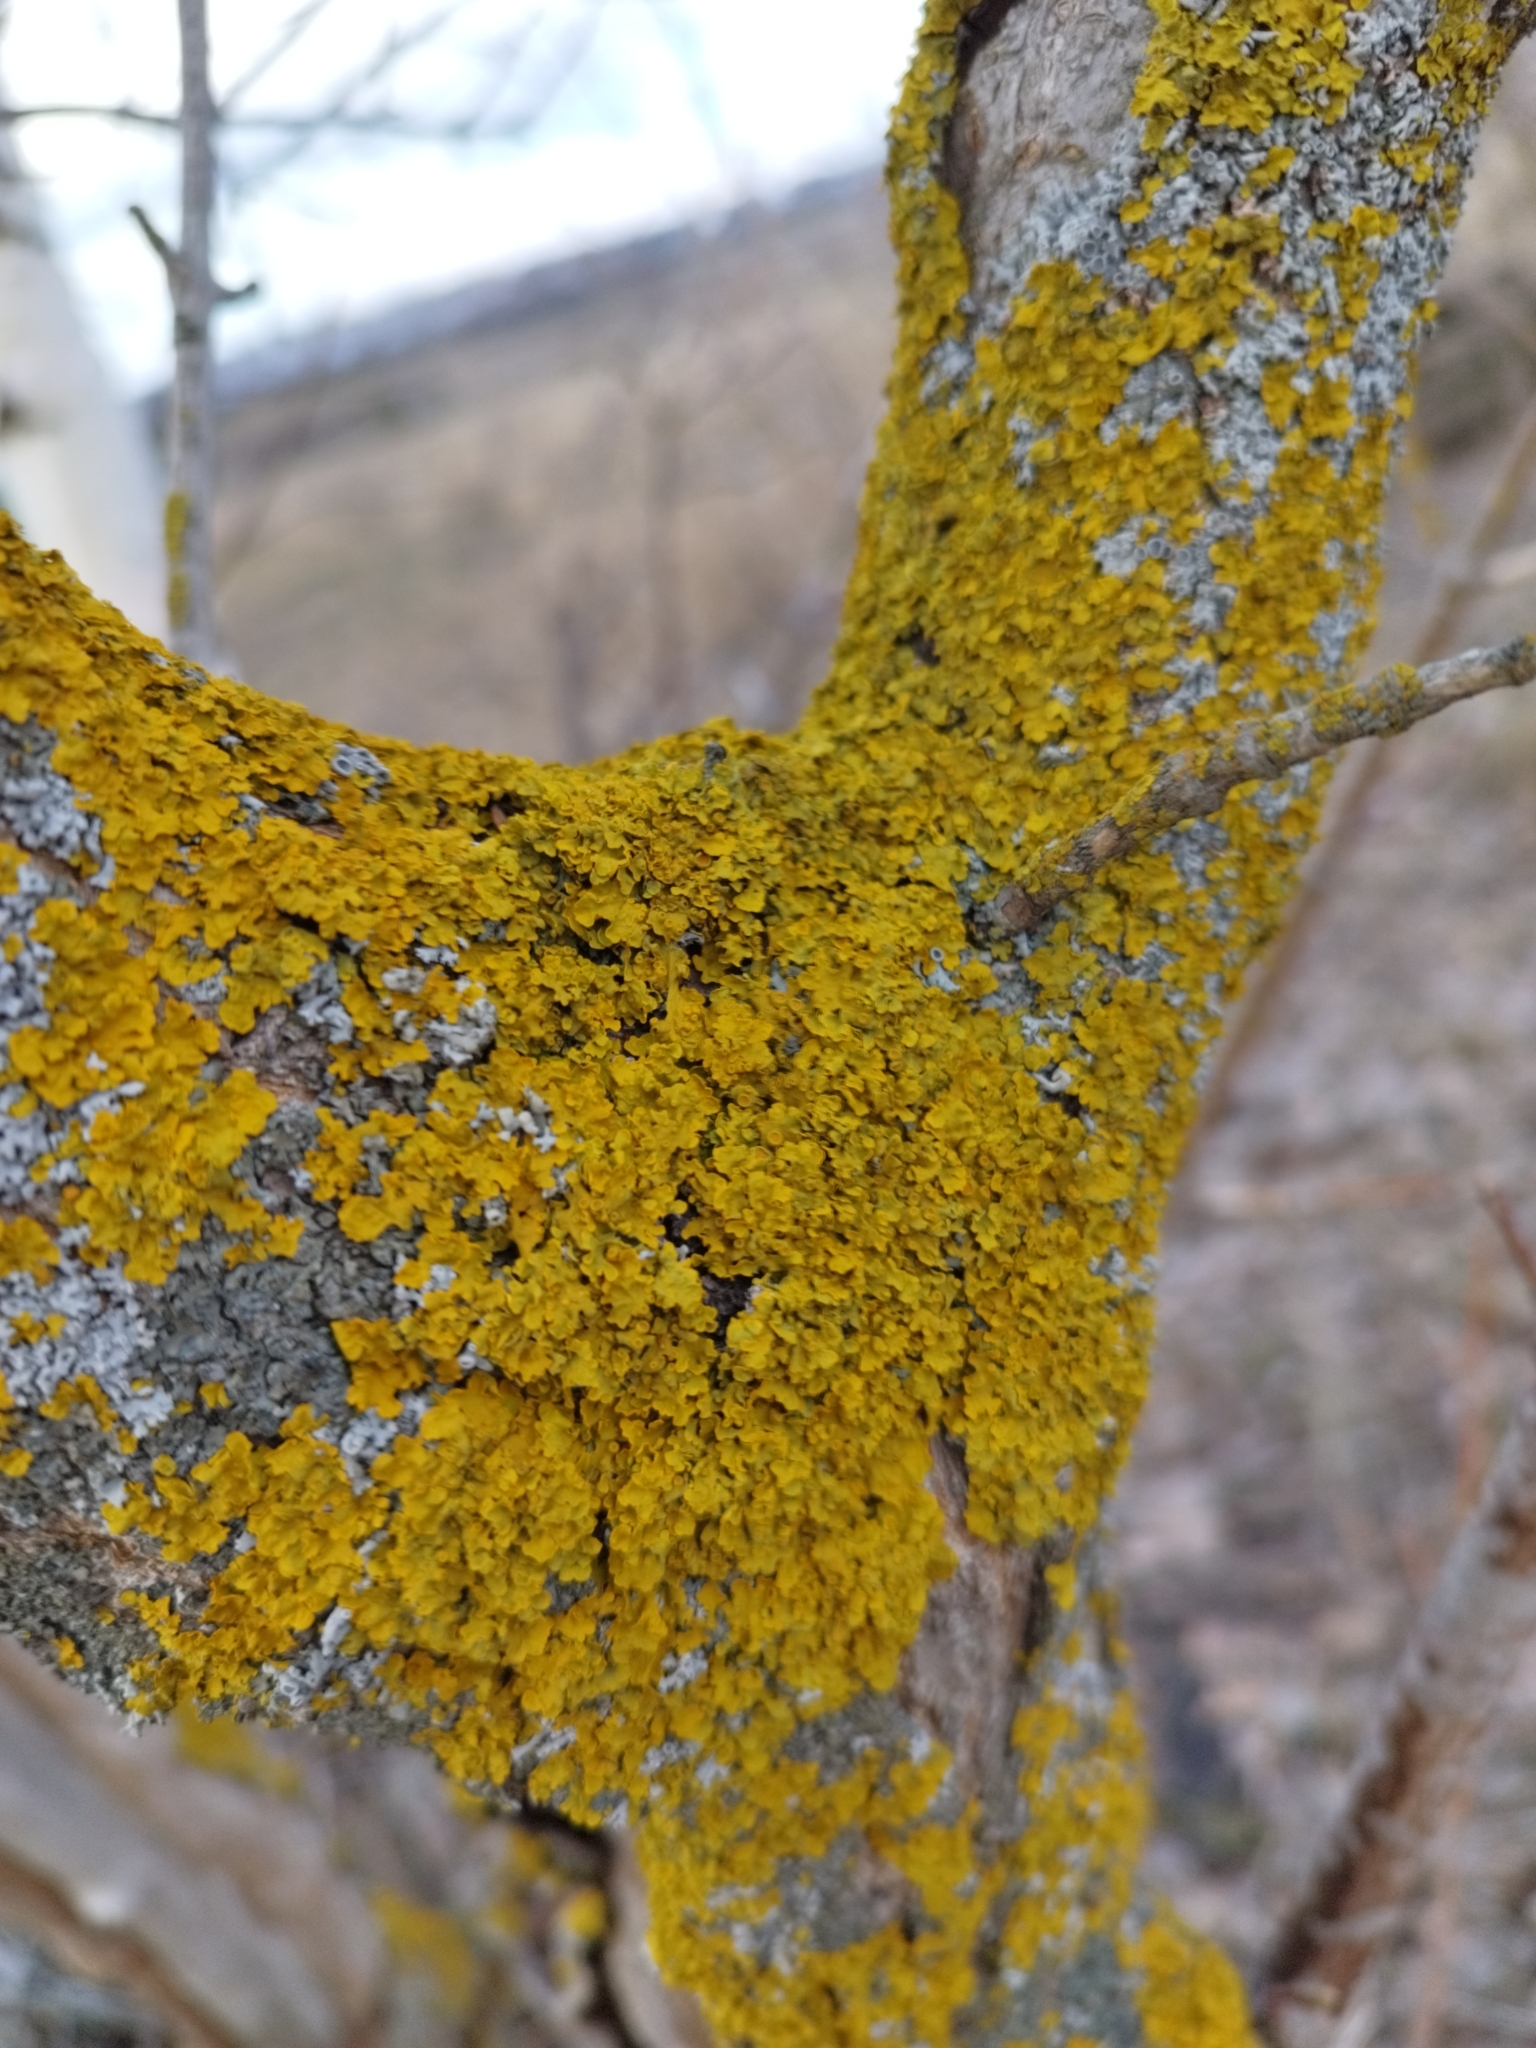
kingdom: Fungi
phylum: Ascomycota
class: Lecanoromycetes
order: Teloschistales
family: Teloschistaceae
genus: Xanthoria
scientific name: Xanthoria parietina
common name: Common orange lichen
